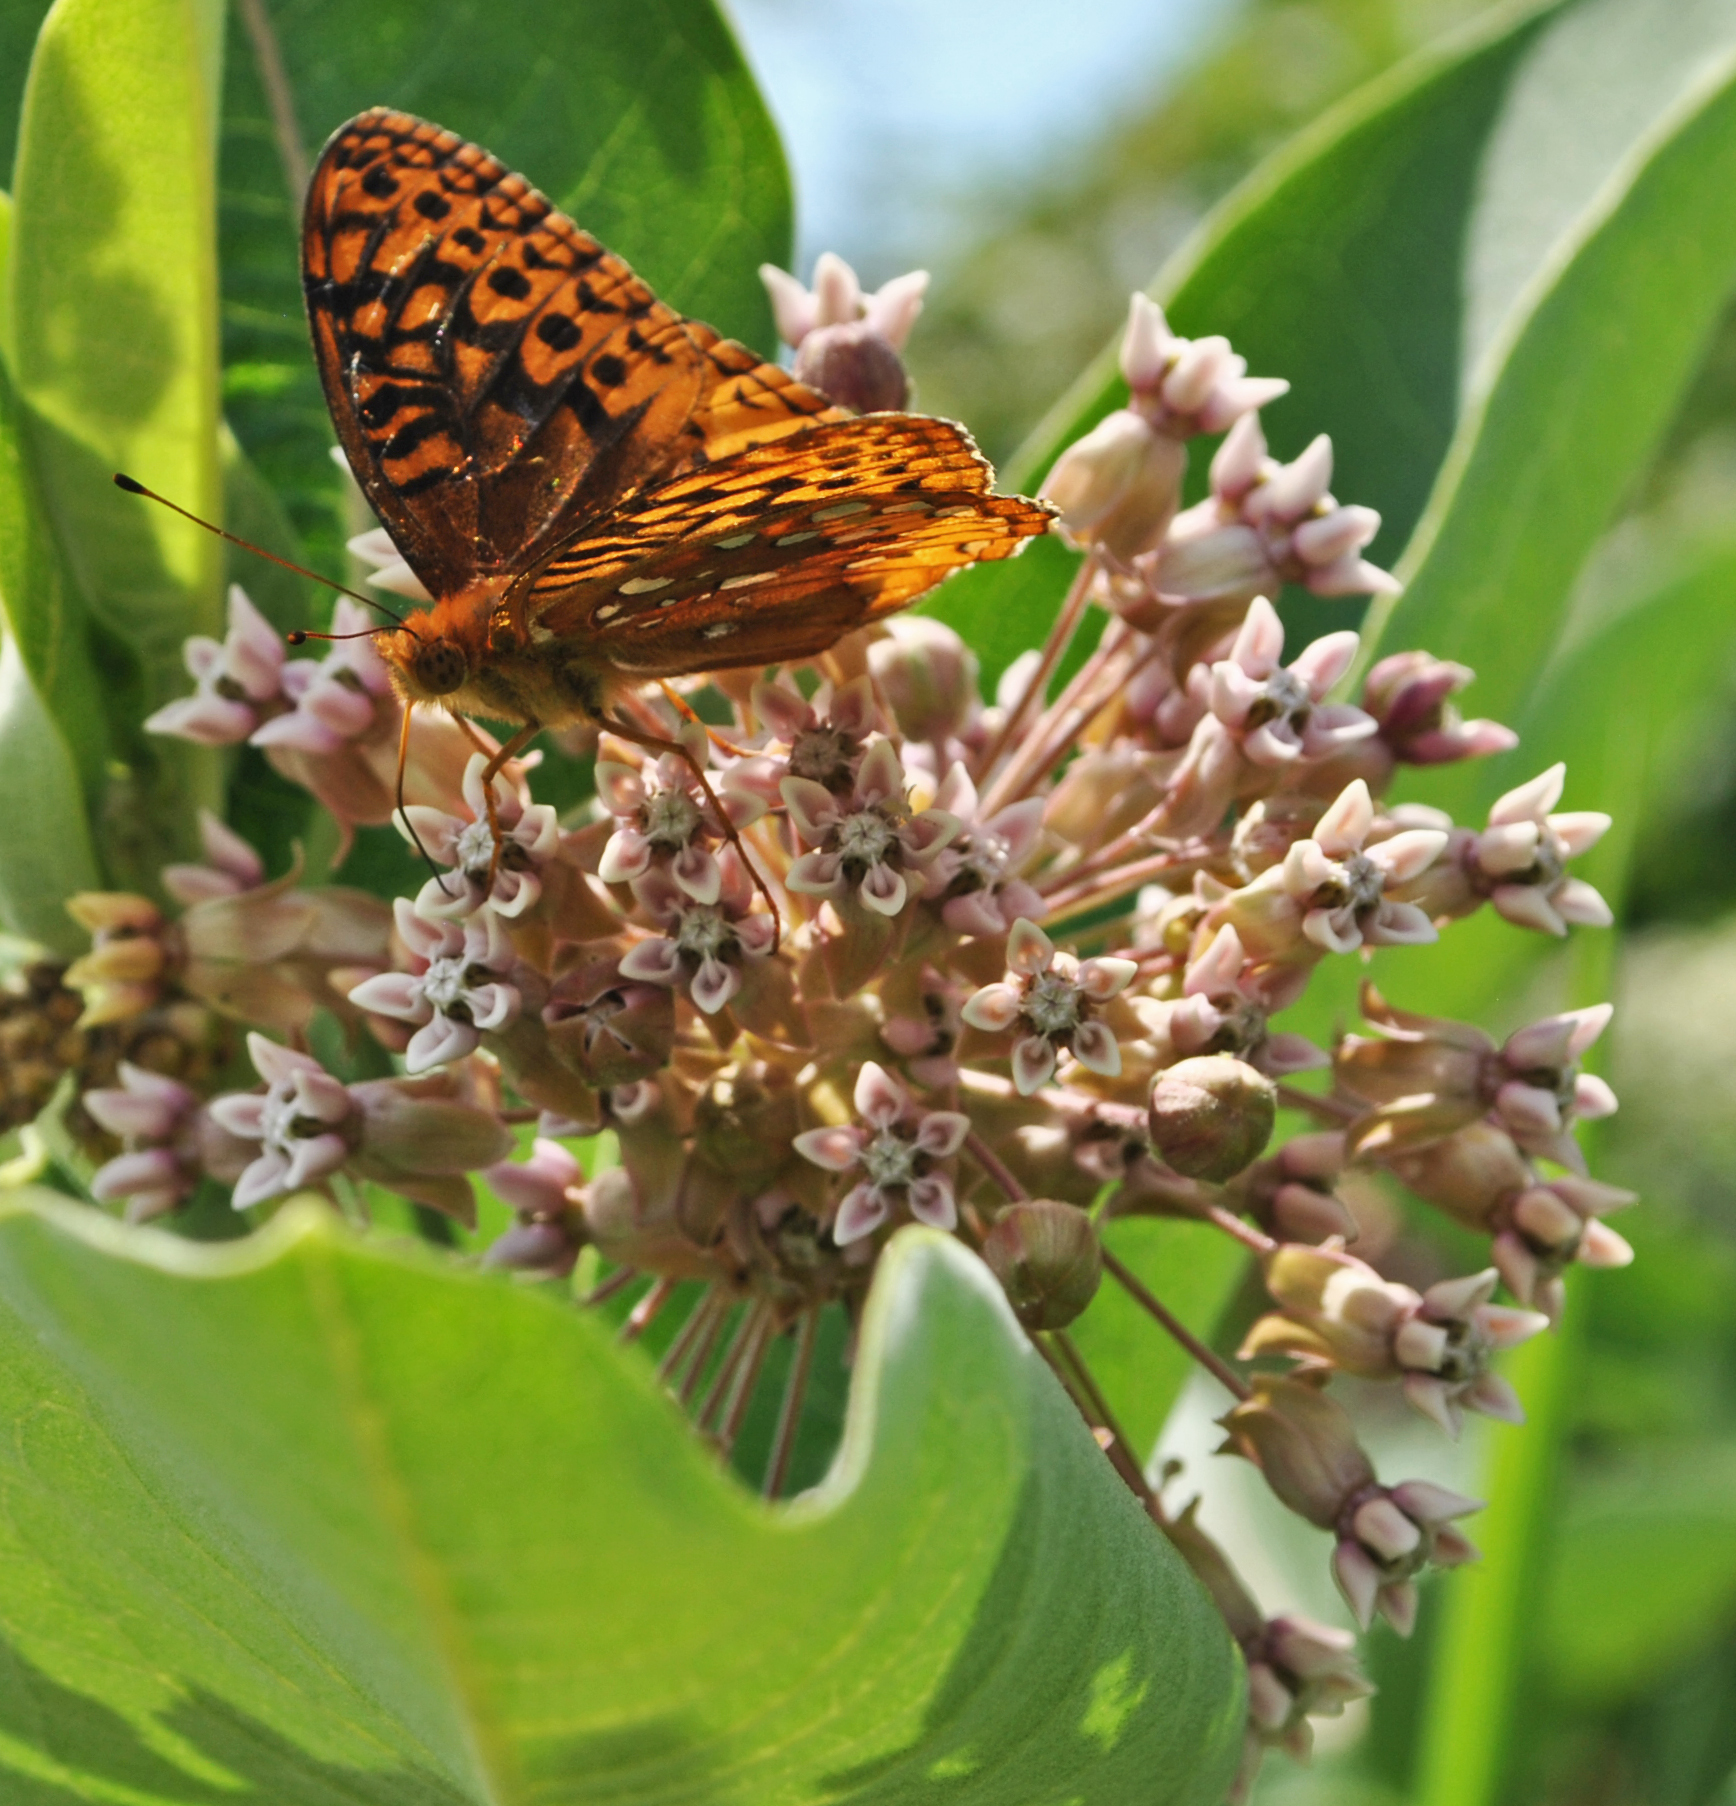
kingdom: Animalia
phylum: Arthropoda
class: Insecta
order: Lepidoptera
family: Nymphalidae
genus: Speyeria
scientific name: Speyeria cybele
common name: Great spangled fritillary
